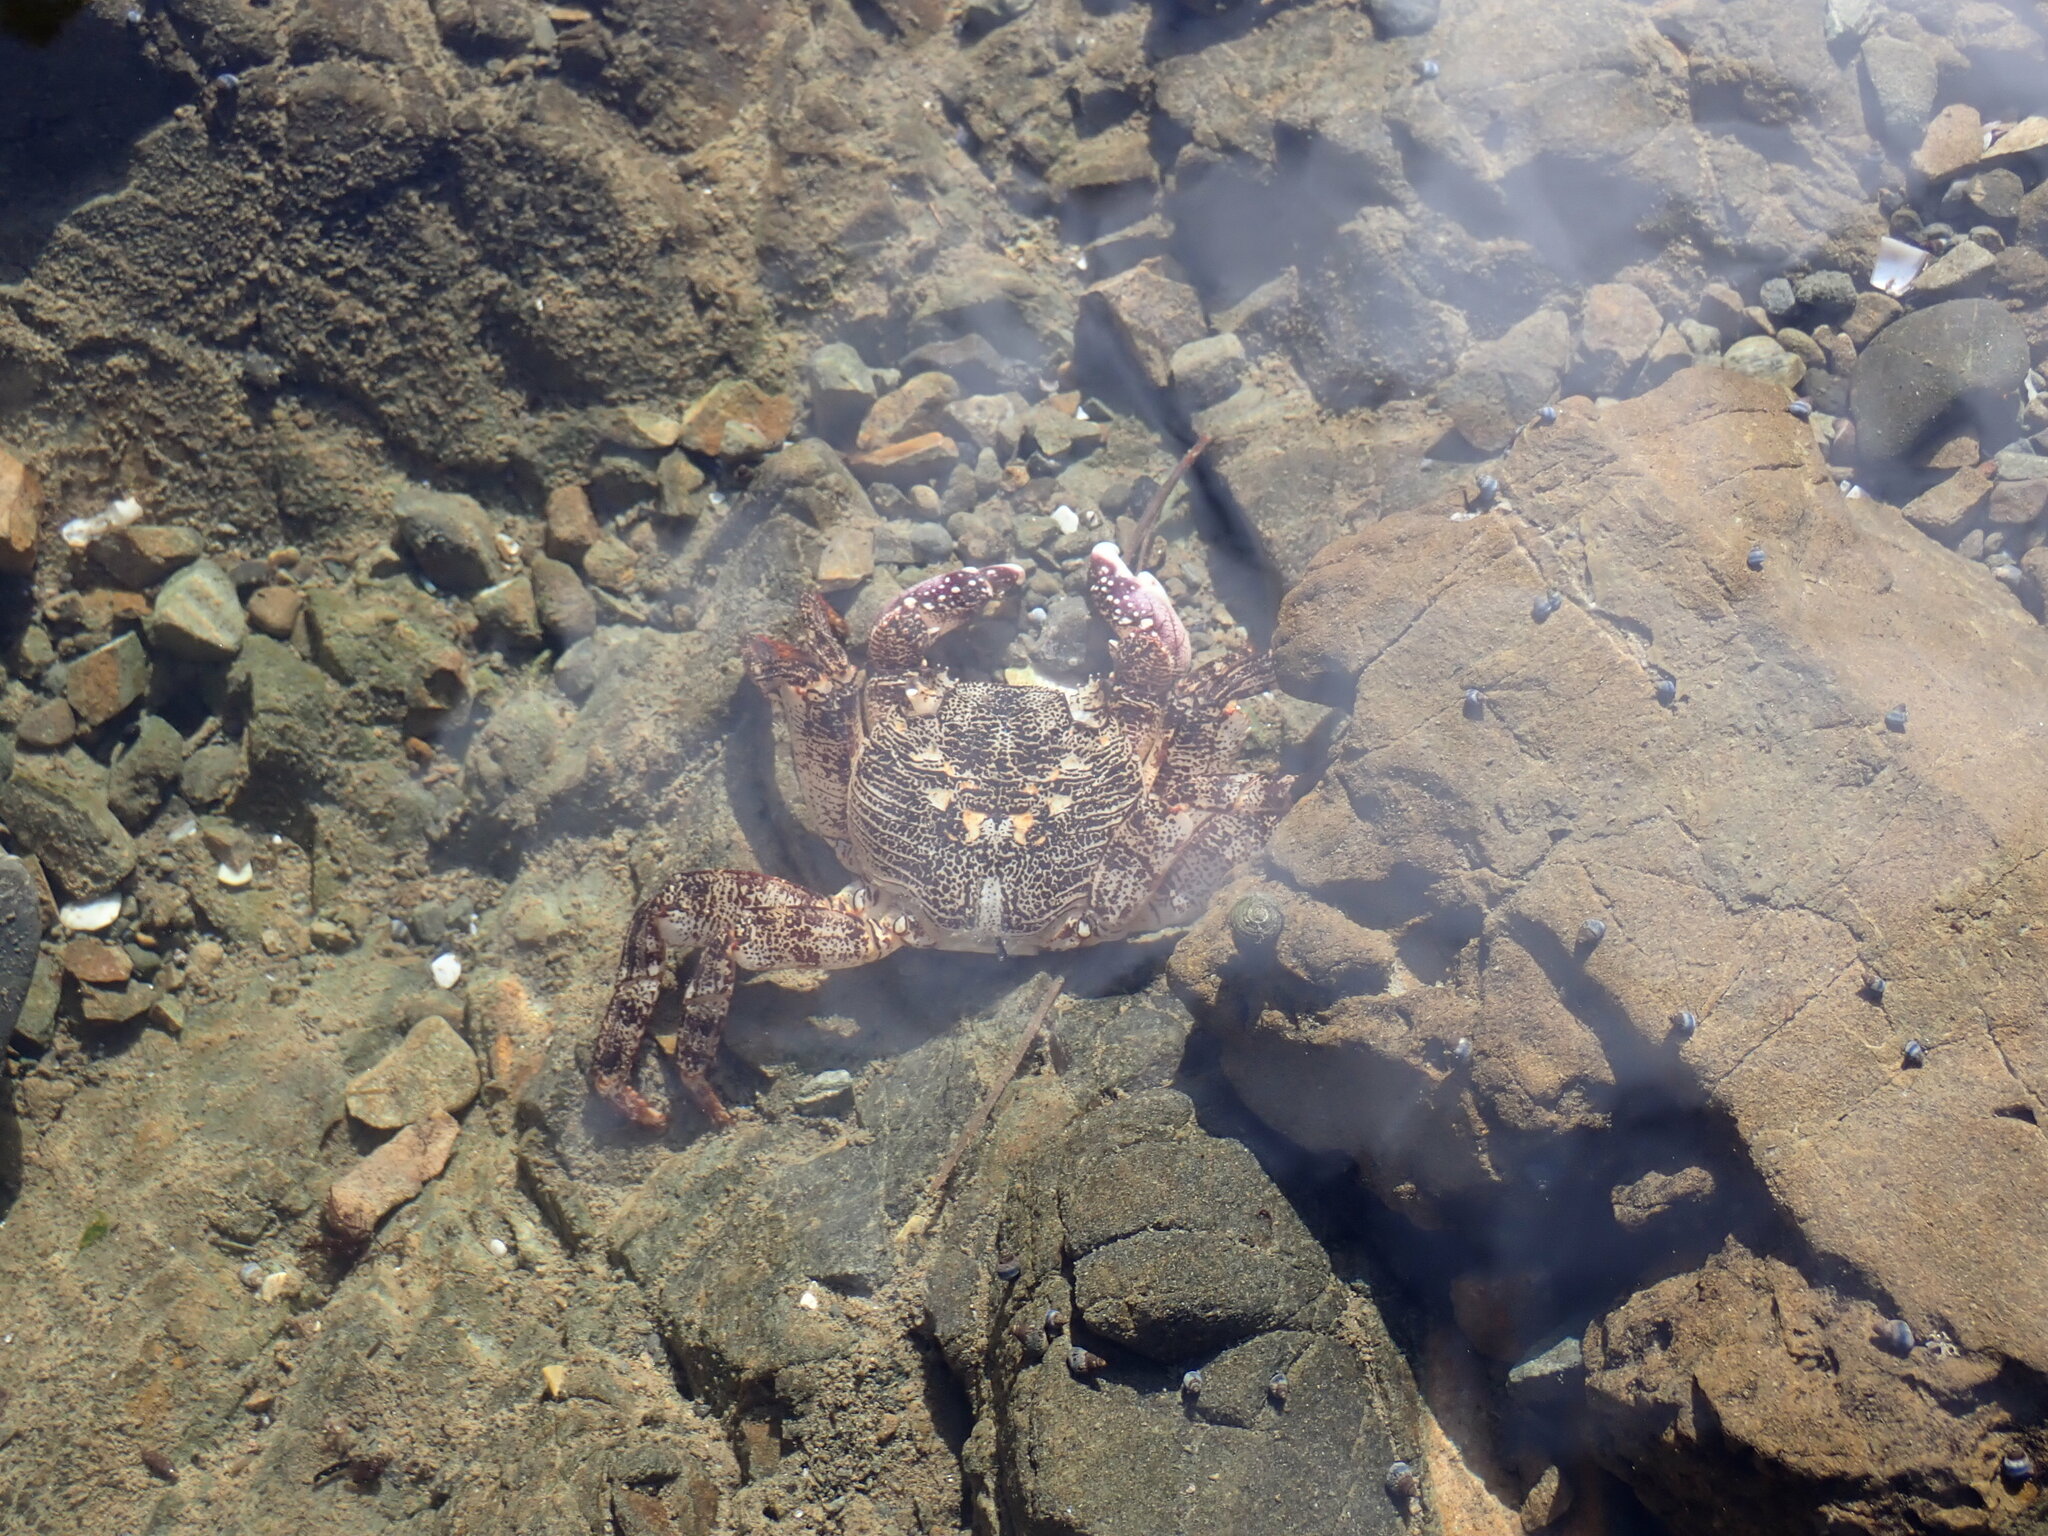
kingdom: Animalia
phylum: Arthropoda
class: Malacostraca
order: Decapoda
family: Grapsidae
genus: Leptograpsus
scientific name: Leptograpsus variegatus
